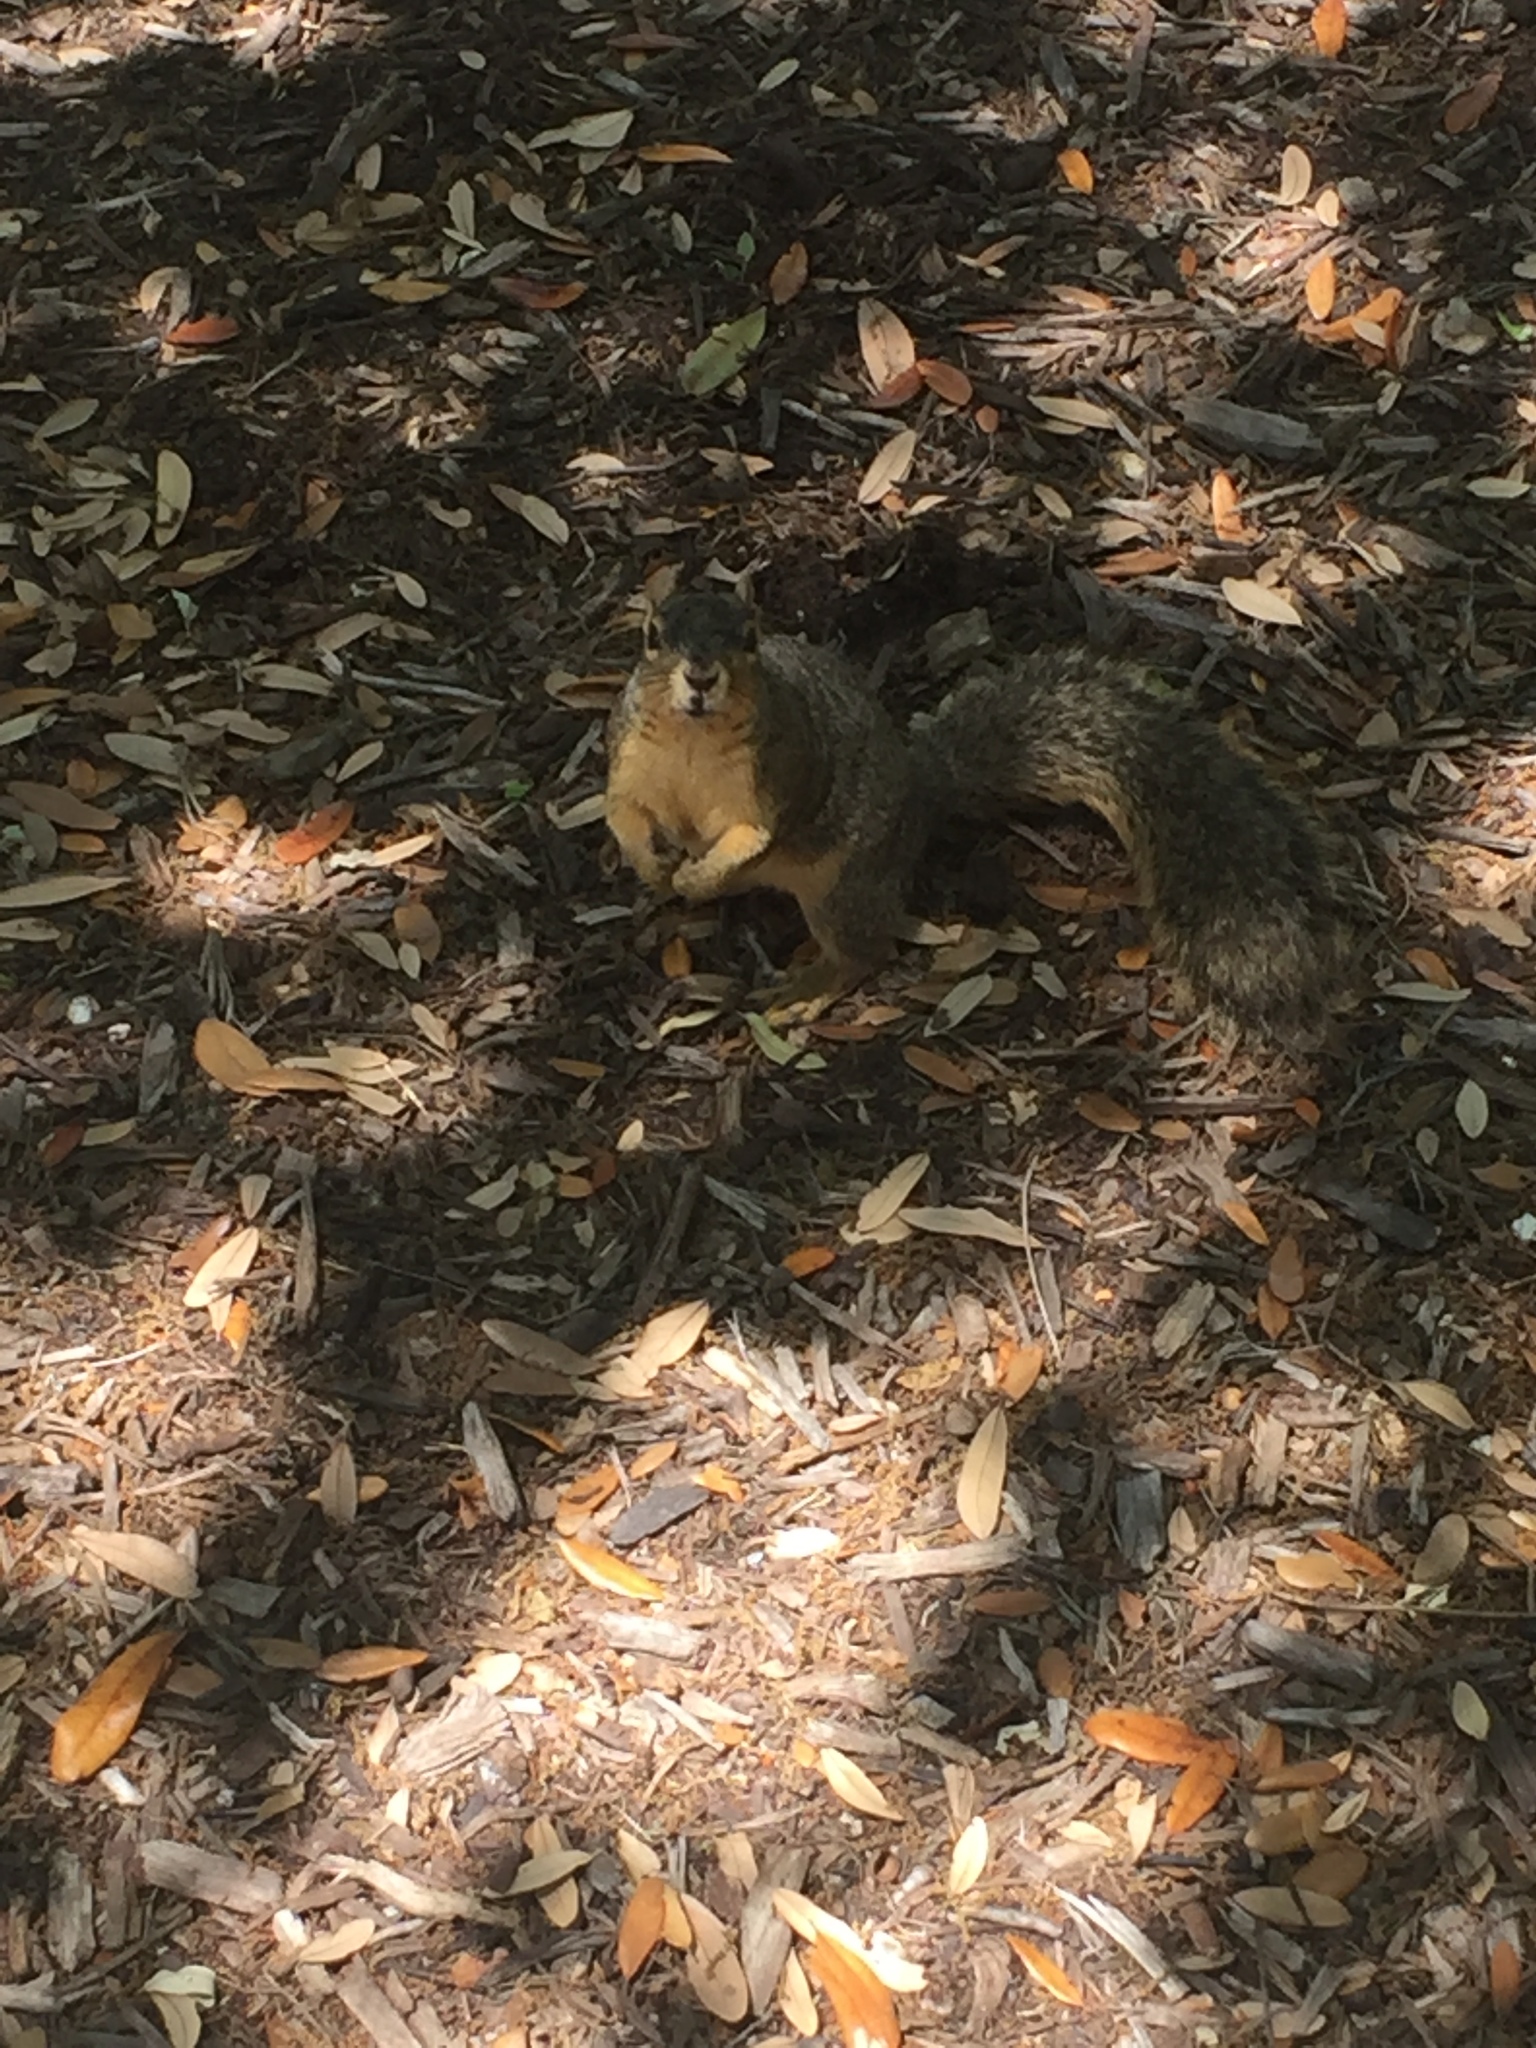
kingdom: Animalia
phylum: Chordata
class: Mammalia
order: Rodentia
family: Sciuridae
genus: Sciurus
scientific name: Sciurus niger
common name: Fox squirrel
